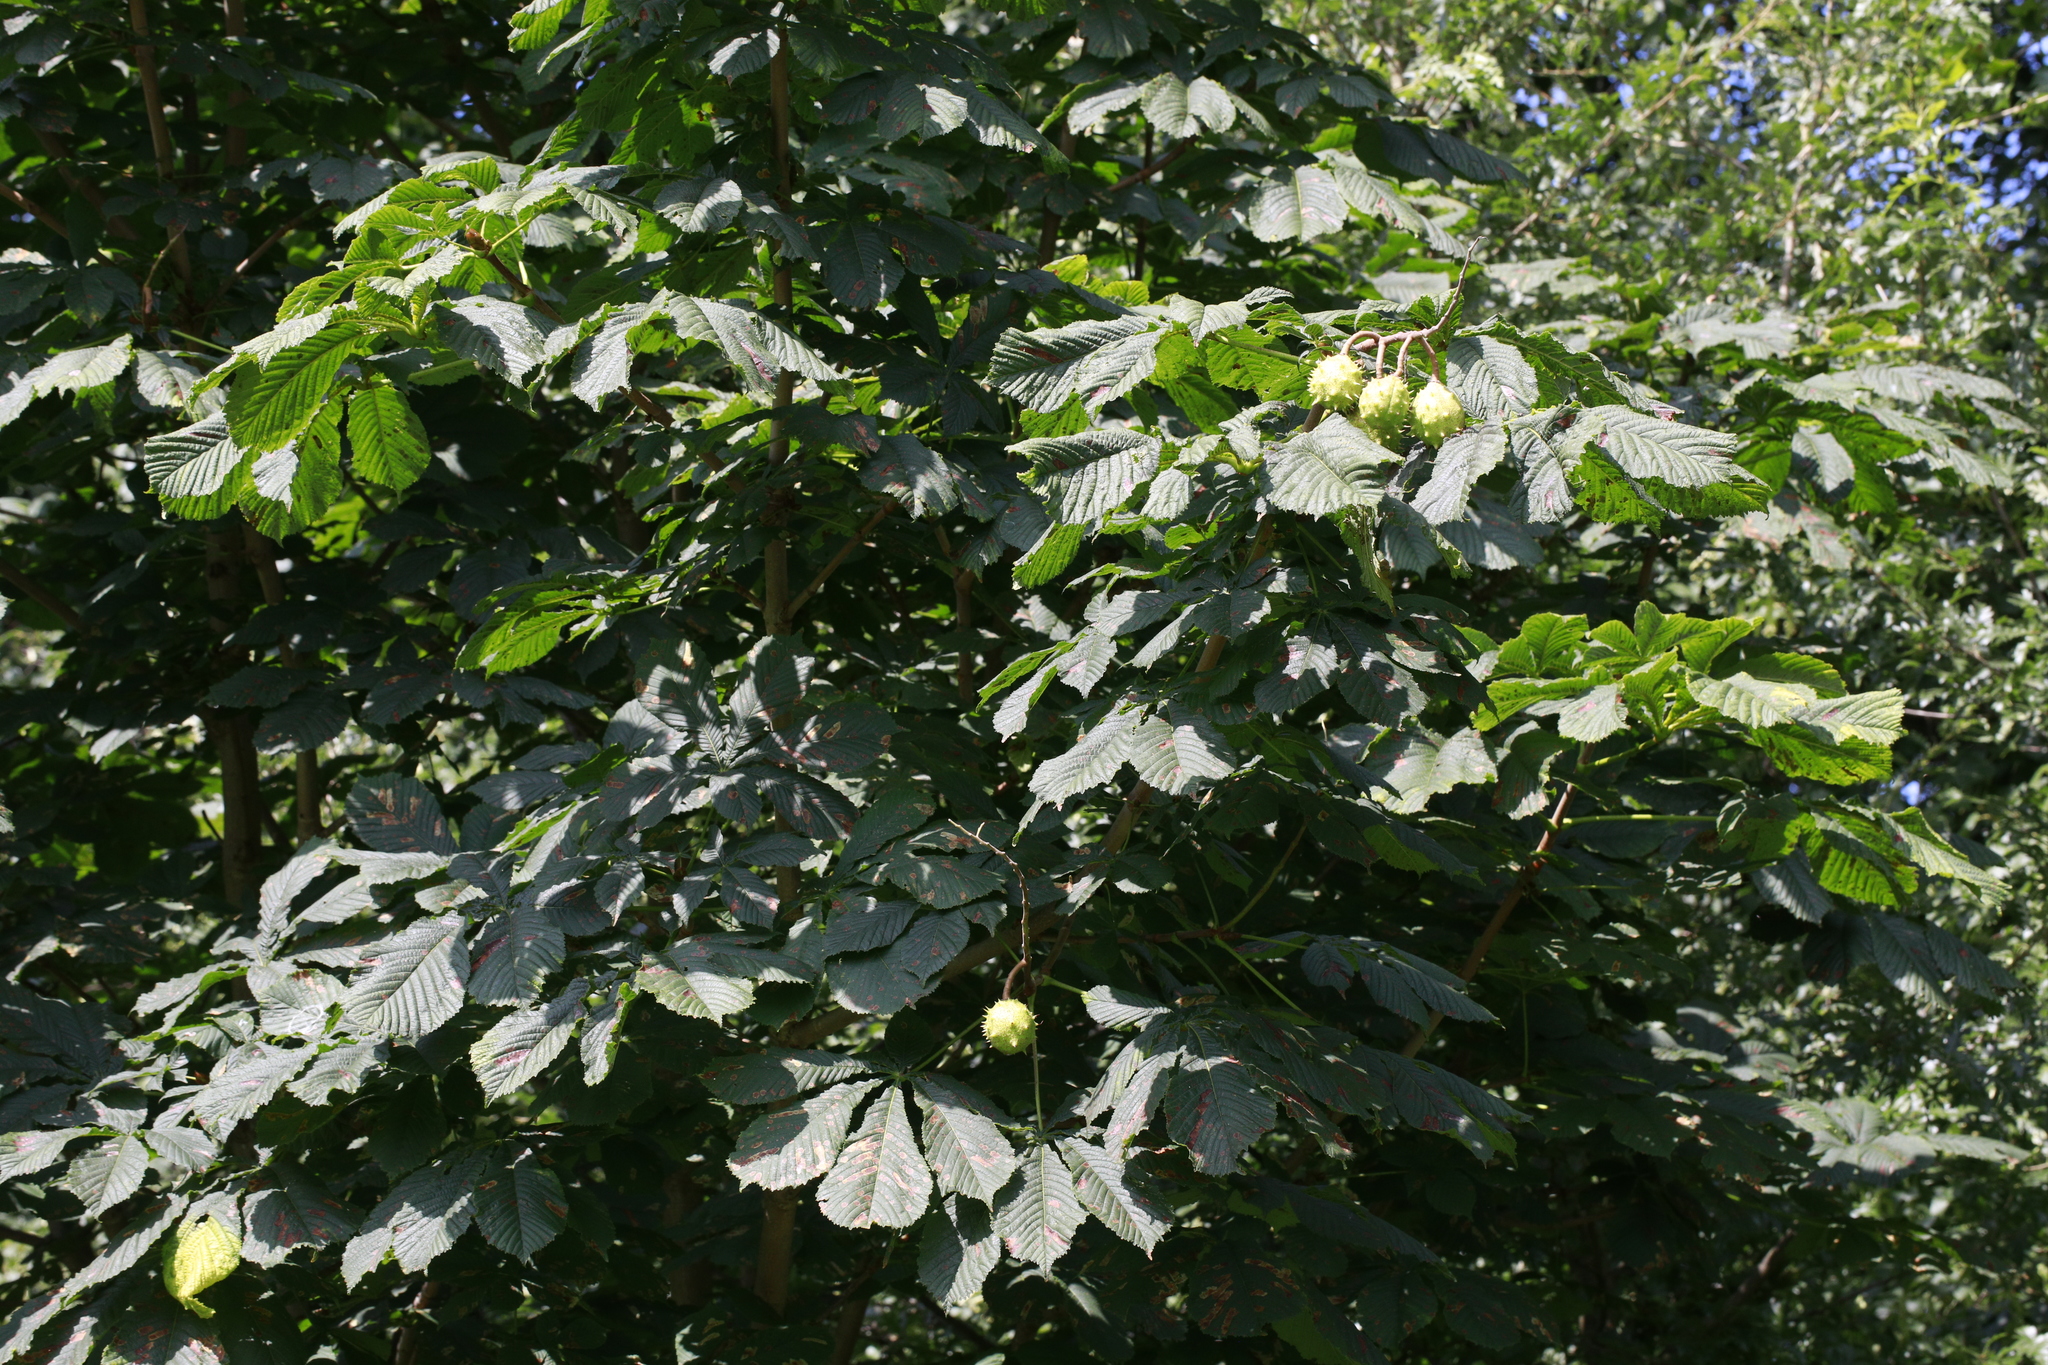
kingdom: Plantae
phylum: Tracheophyta
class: Magnoliopsida
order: Sapindales
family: Sapindaceae
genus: Aesculus
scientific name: Aesculus hippocastanum
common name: Horse-chestnut
